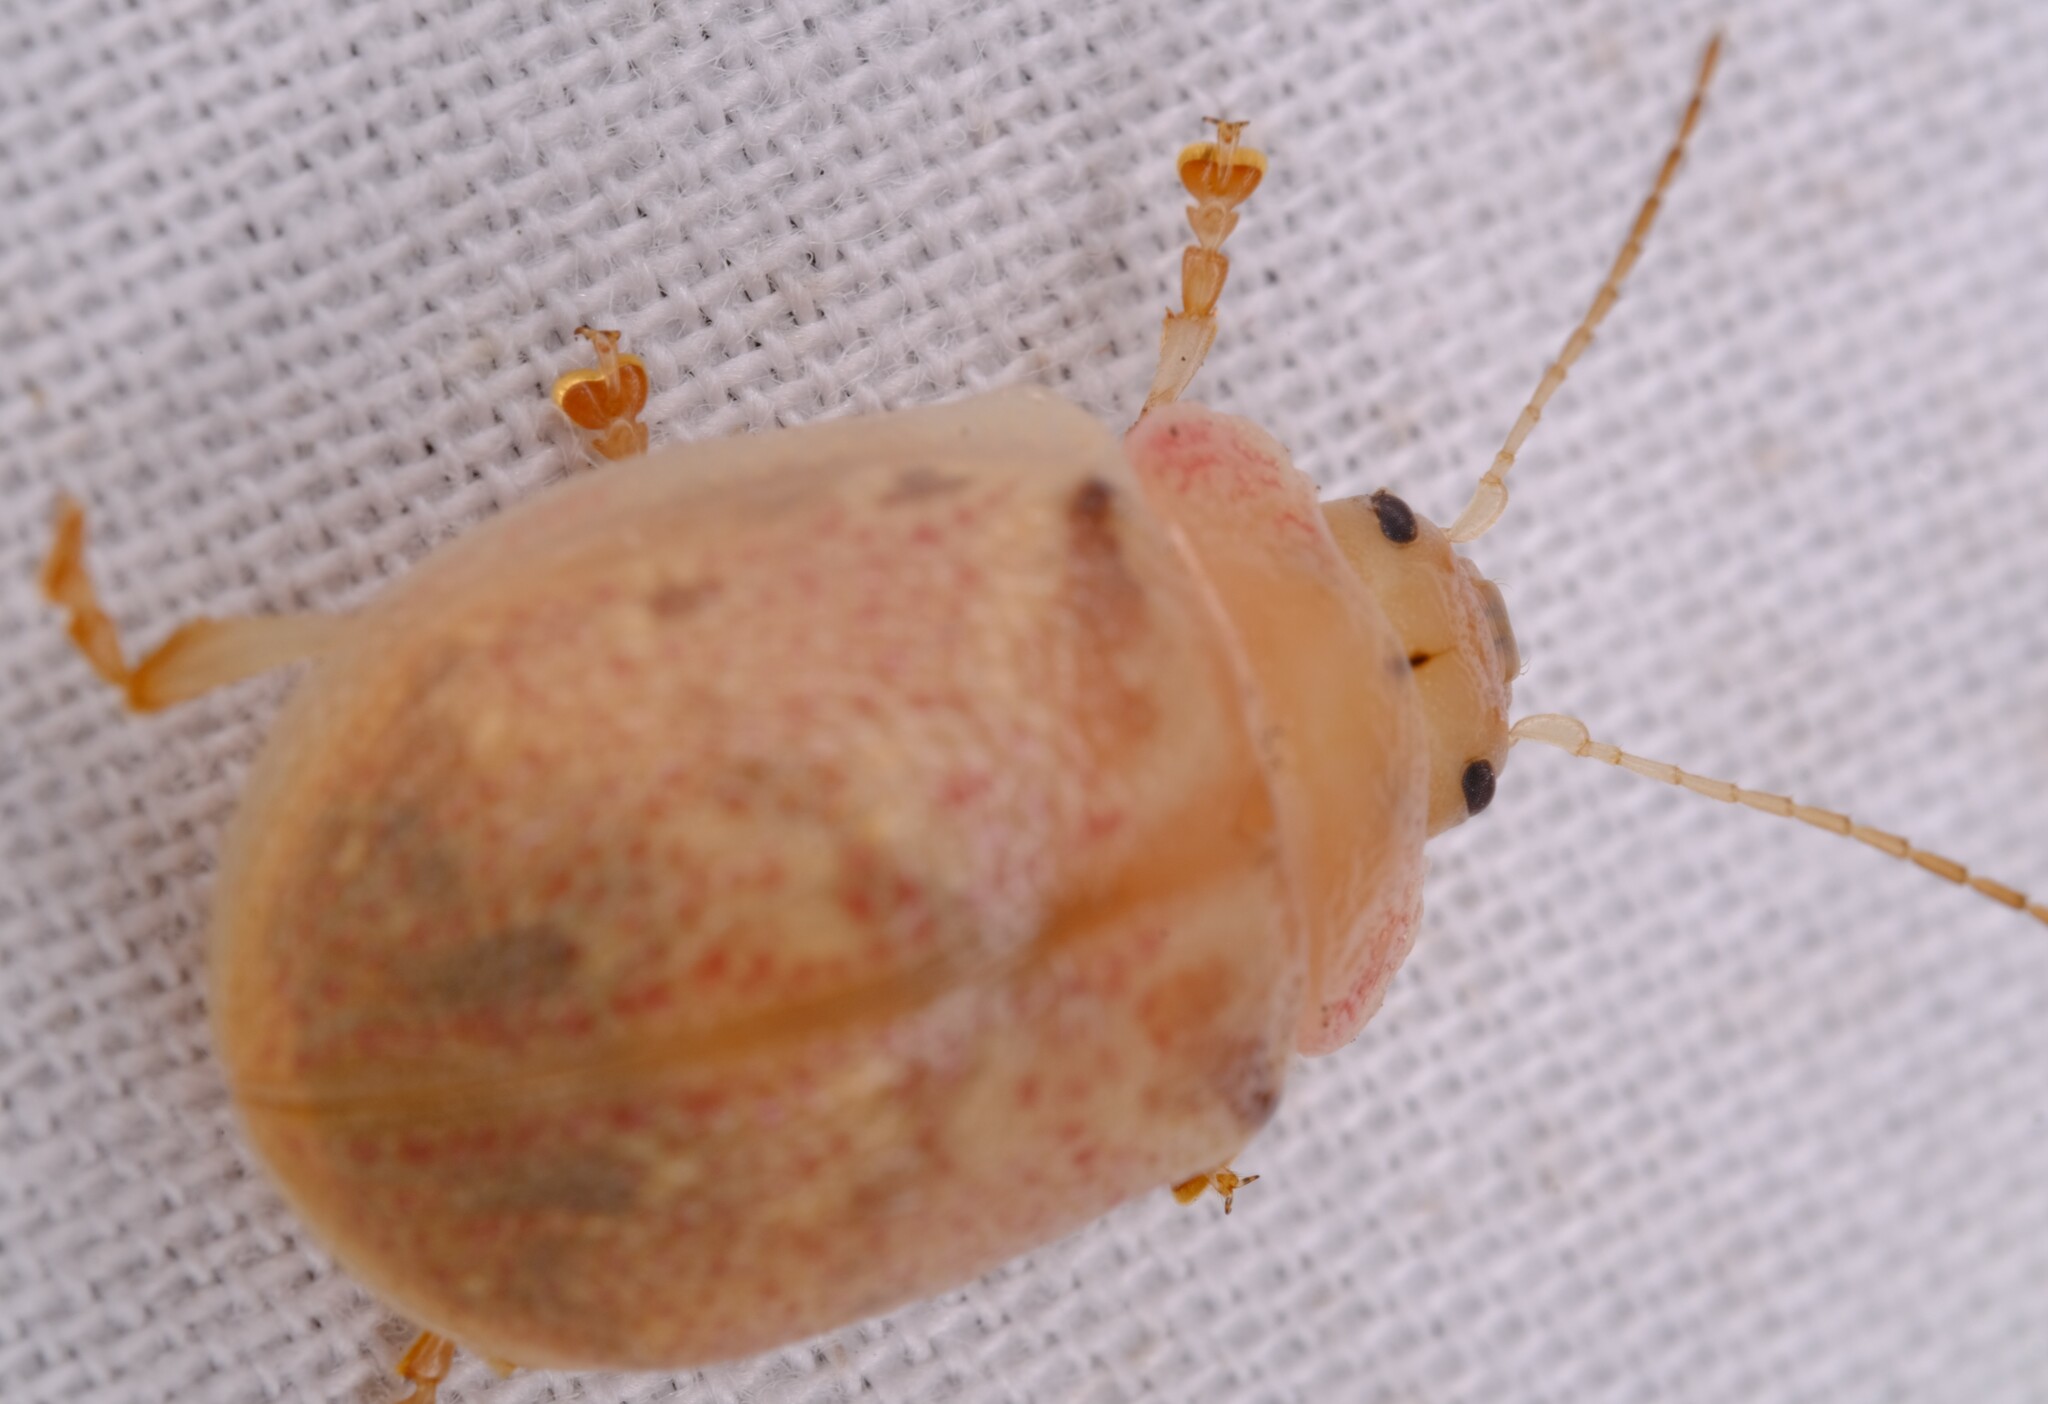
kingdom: Animalia
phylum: Arthropoda
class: Insecta
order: Coleoptera
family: Chrysomelidae
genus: Paropsis
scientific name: Paropsis charybdis
